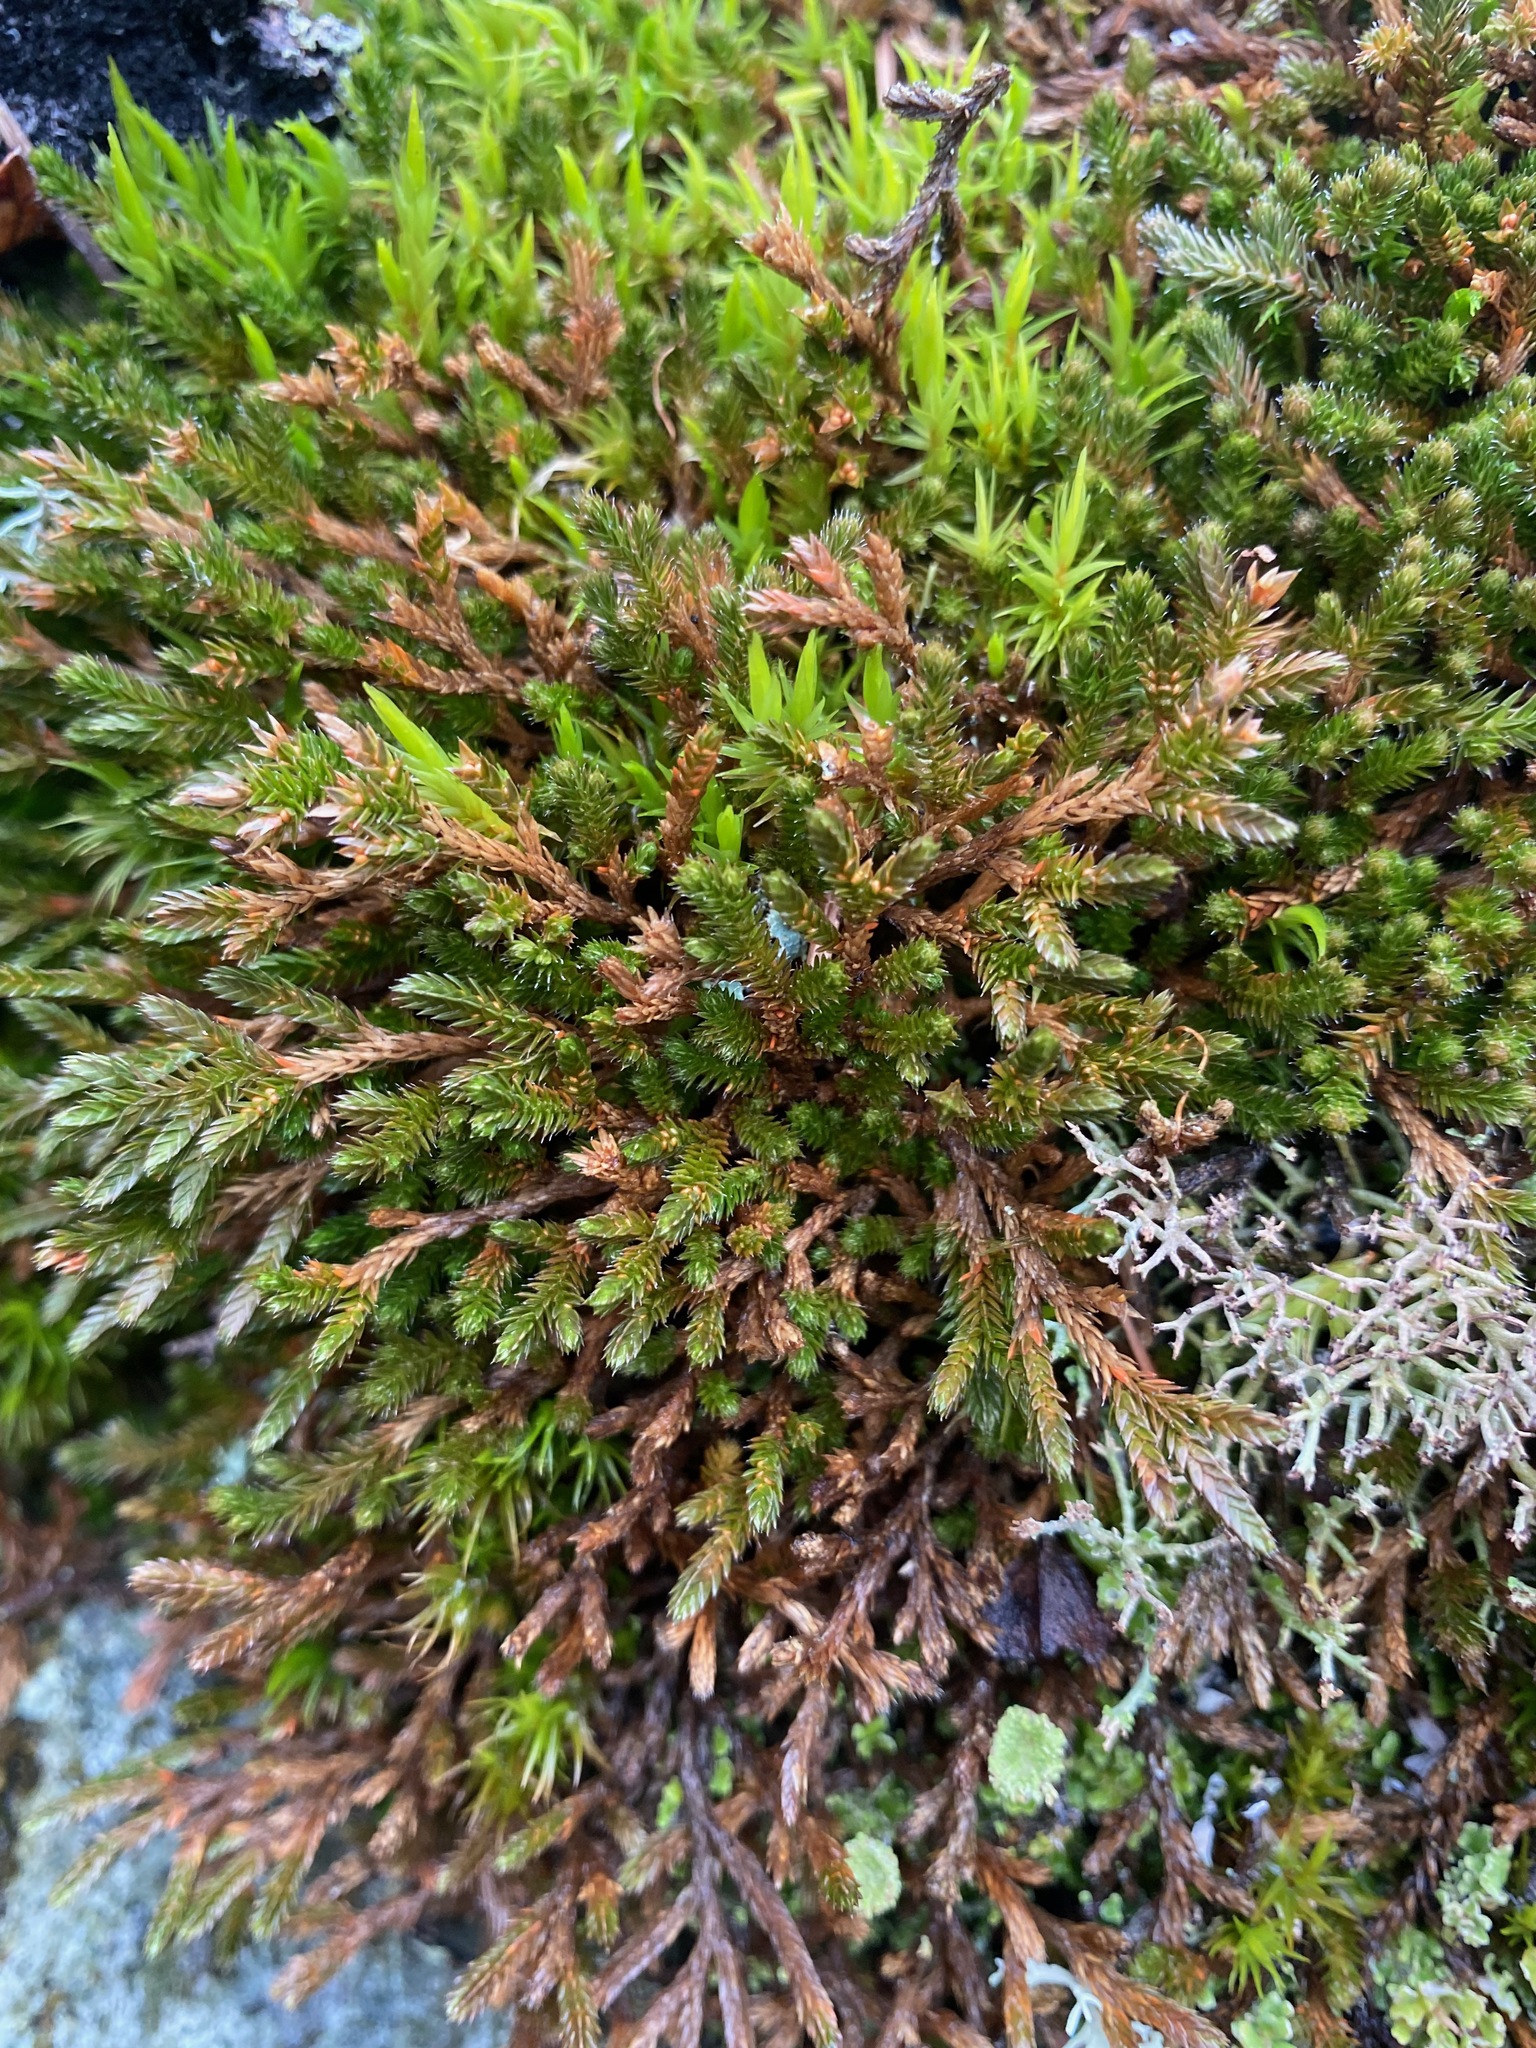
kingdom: Plantae
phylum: Tracheophyta
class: Lycopodiopsida
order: Selaginellales
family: Selaginellaceae
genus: Selaginella
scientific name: Selaginella wallacei
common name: Wallace's selaginella
